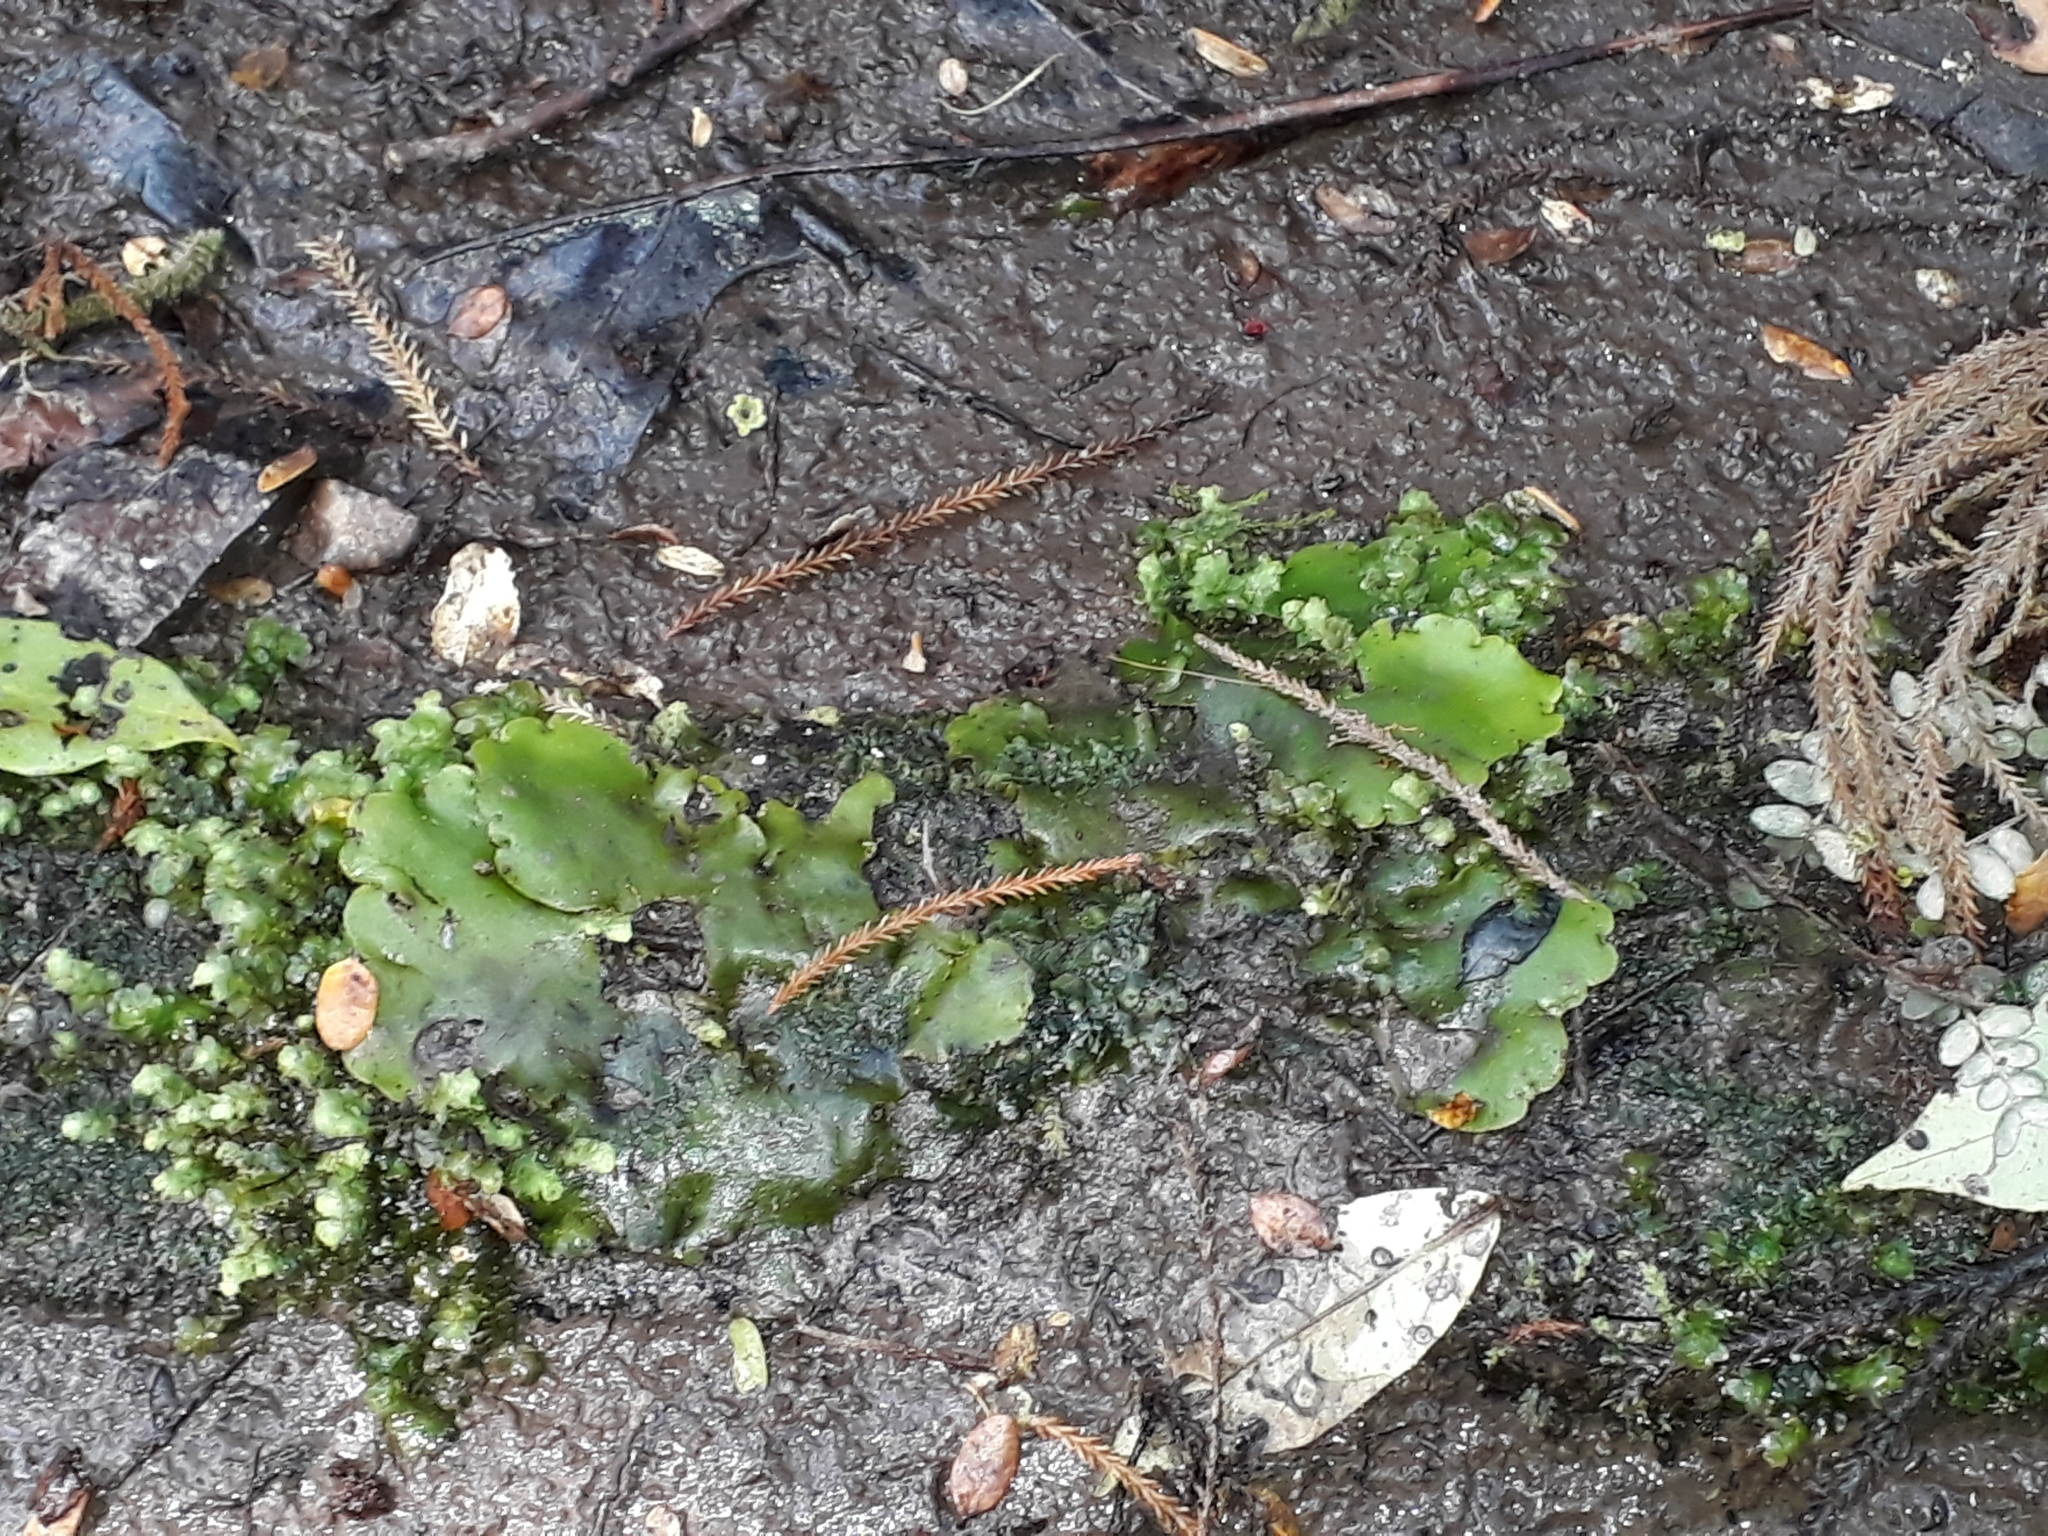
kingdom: Plantae
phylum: Marchantiophyta
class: Marchantiopsida
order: Marchantiales
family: Monocleaceae
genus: Monoclea
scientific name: Monoclea forsteri
